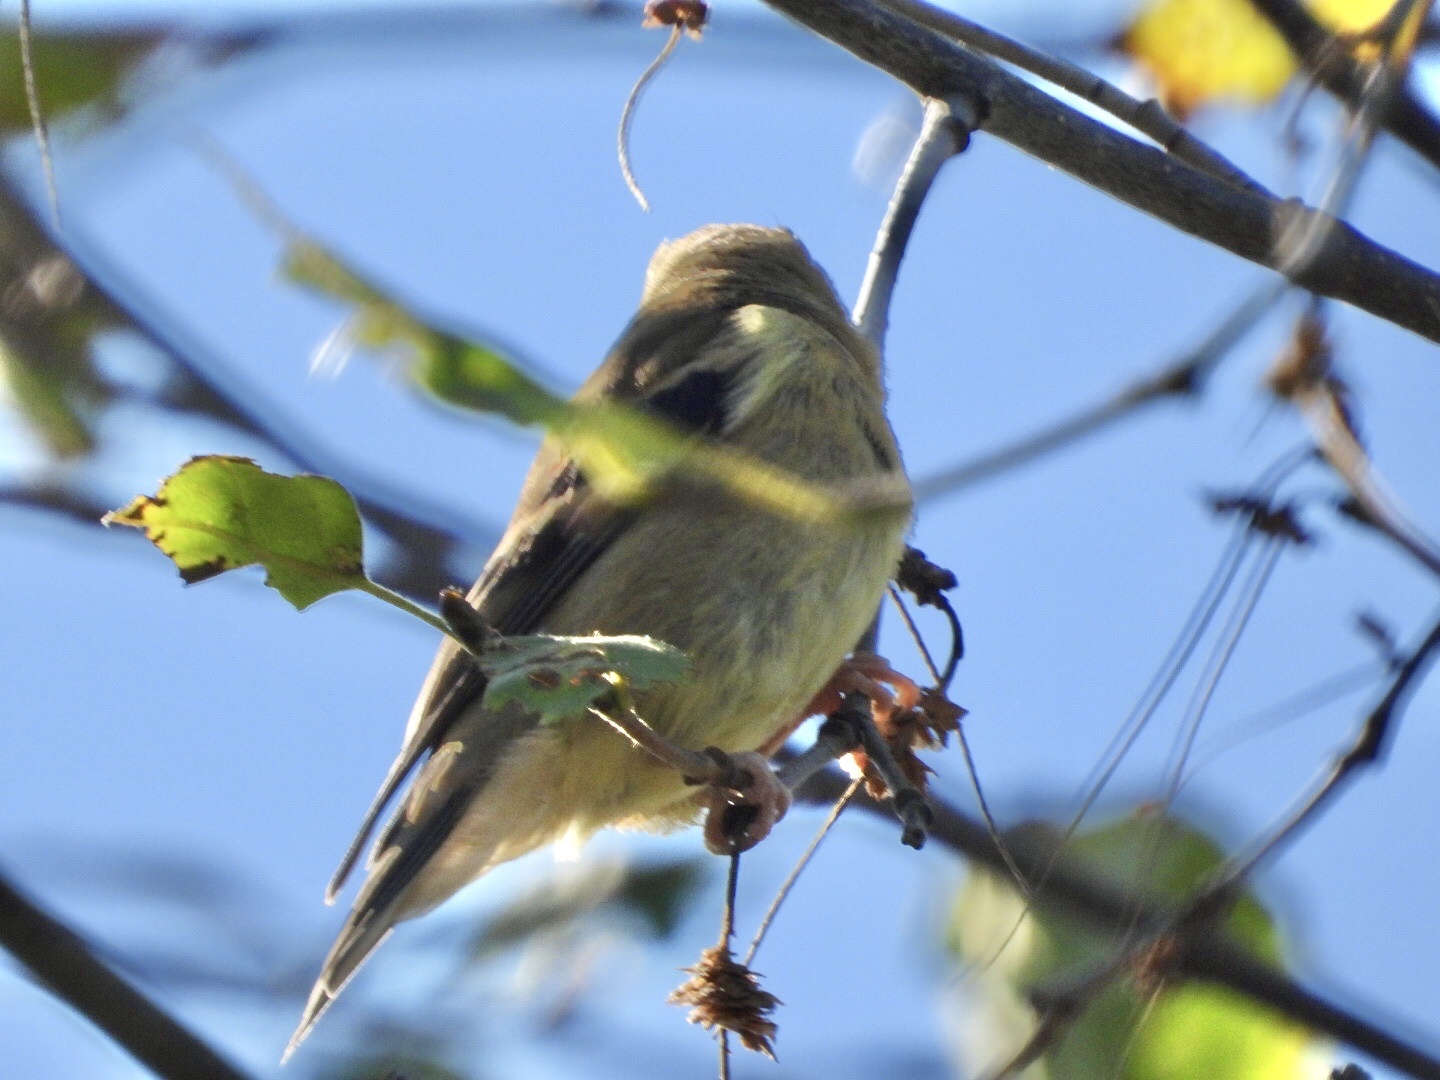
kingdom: Animalia
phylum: Chordata
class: Aves
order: Passeriformes
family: Fringillidae
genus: Spinus
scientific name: Spinus tristis
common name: American goldfinch
